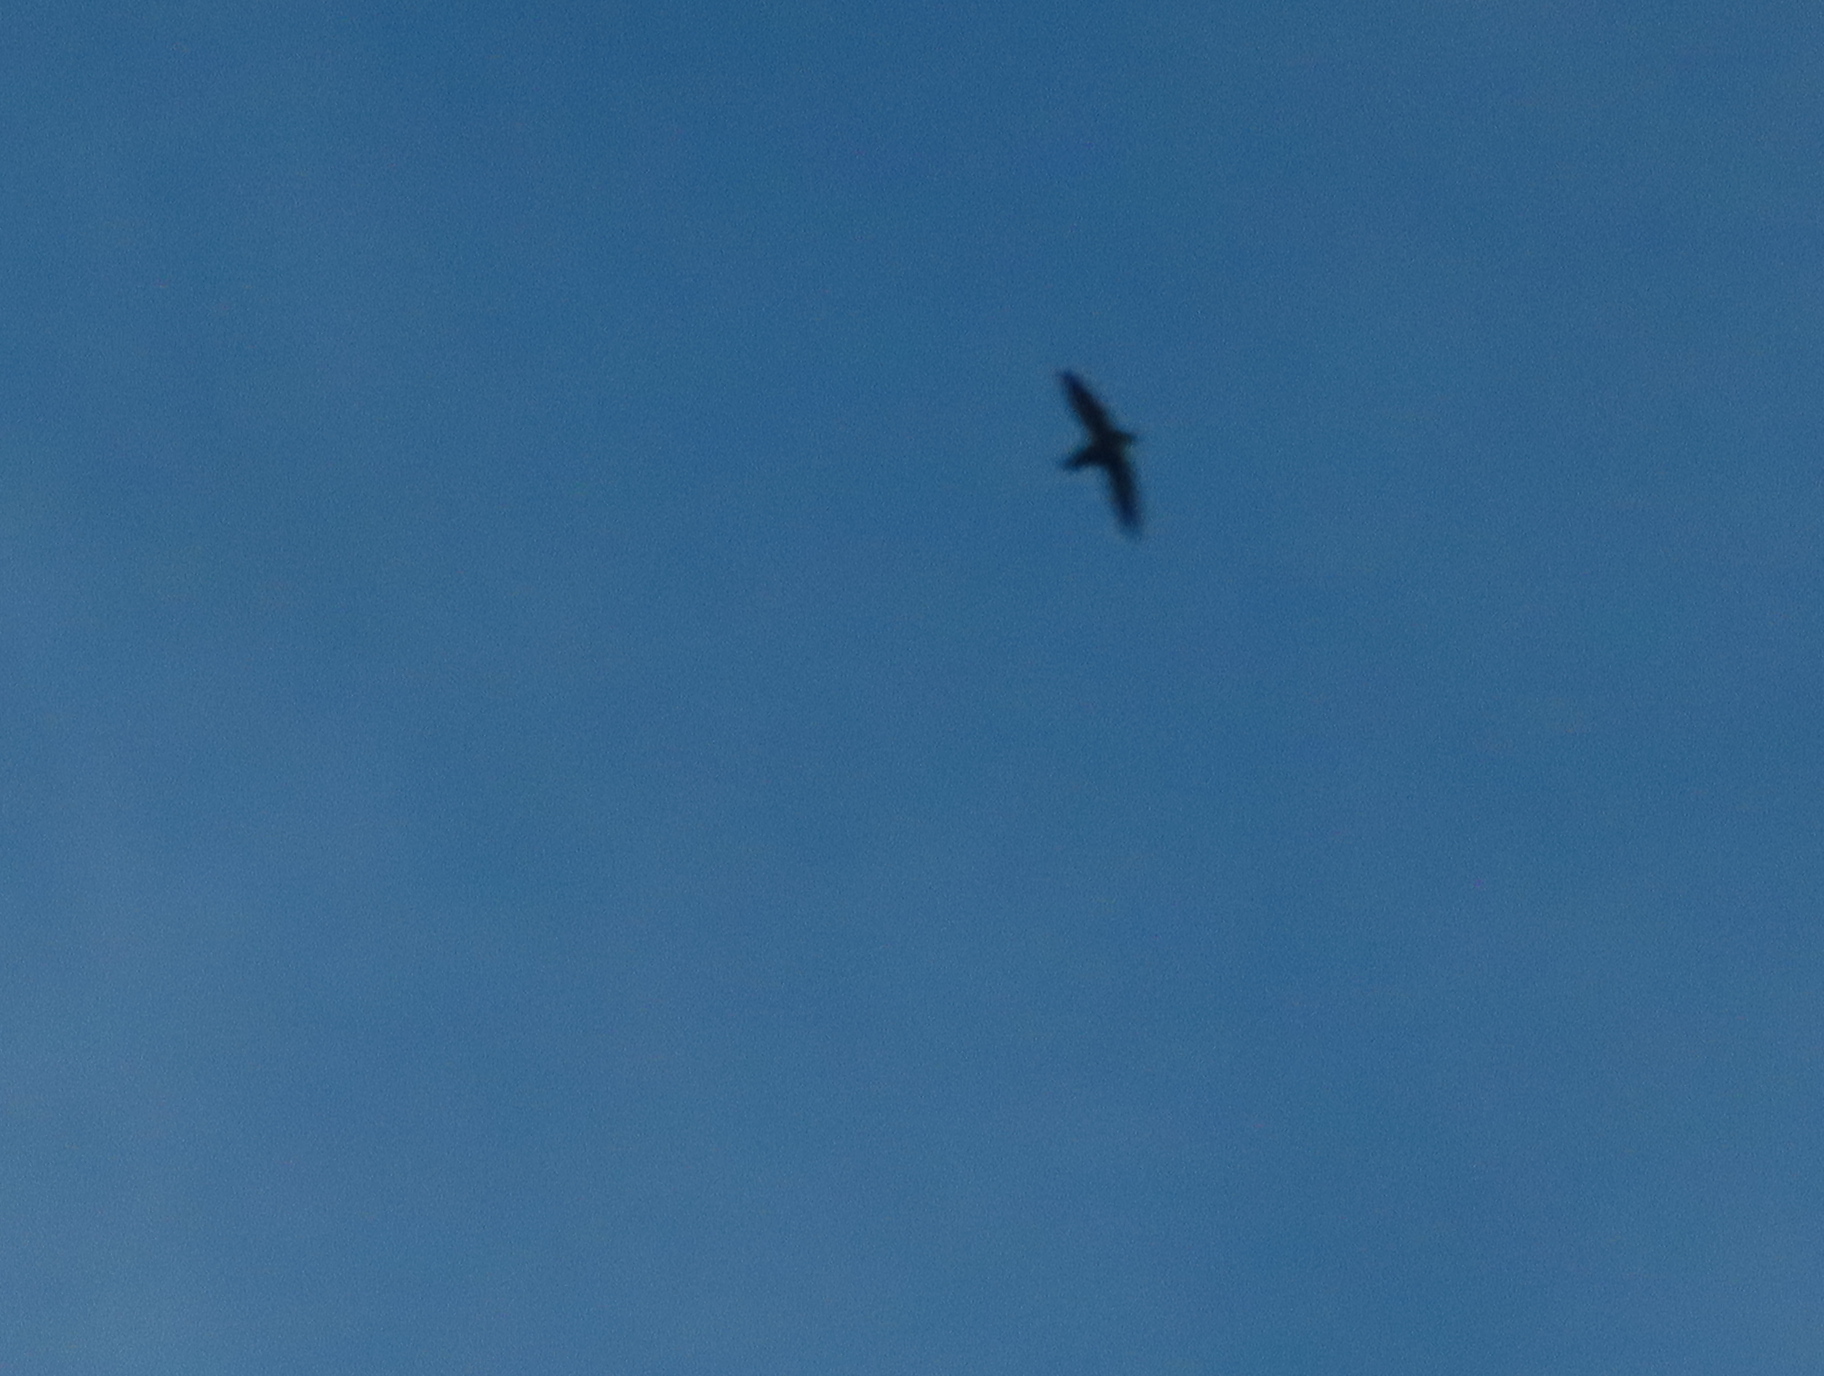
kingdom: Animalia
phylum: Chordata
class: Aves
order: Apodiformes
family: Apodidae
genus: Chaetura
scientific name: Chaetura pelagica
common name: Chimney swift
